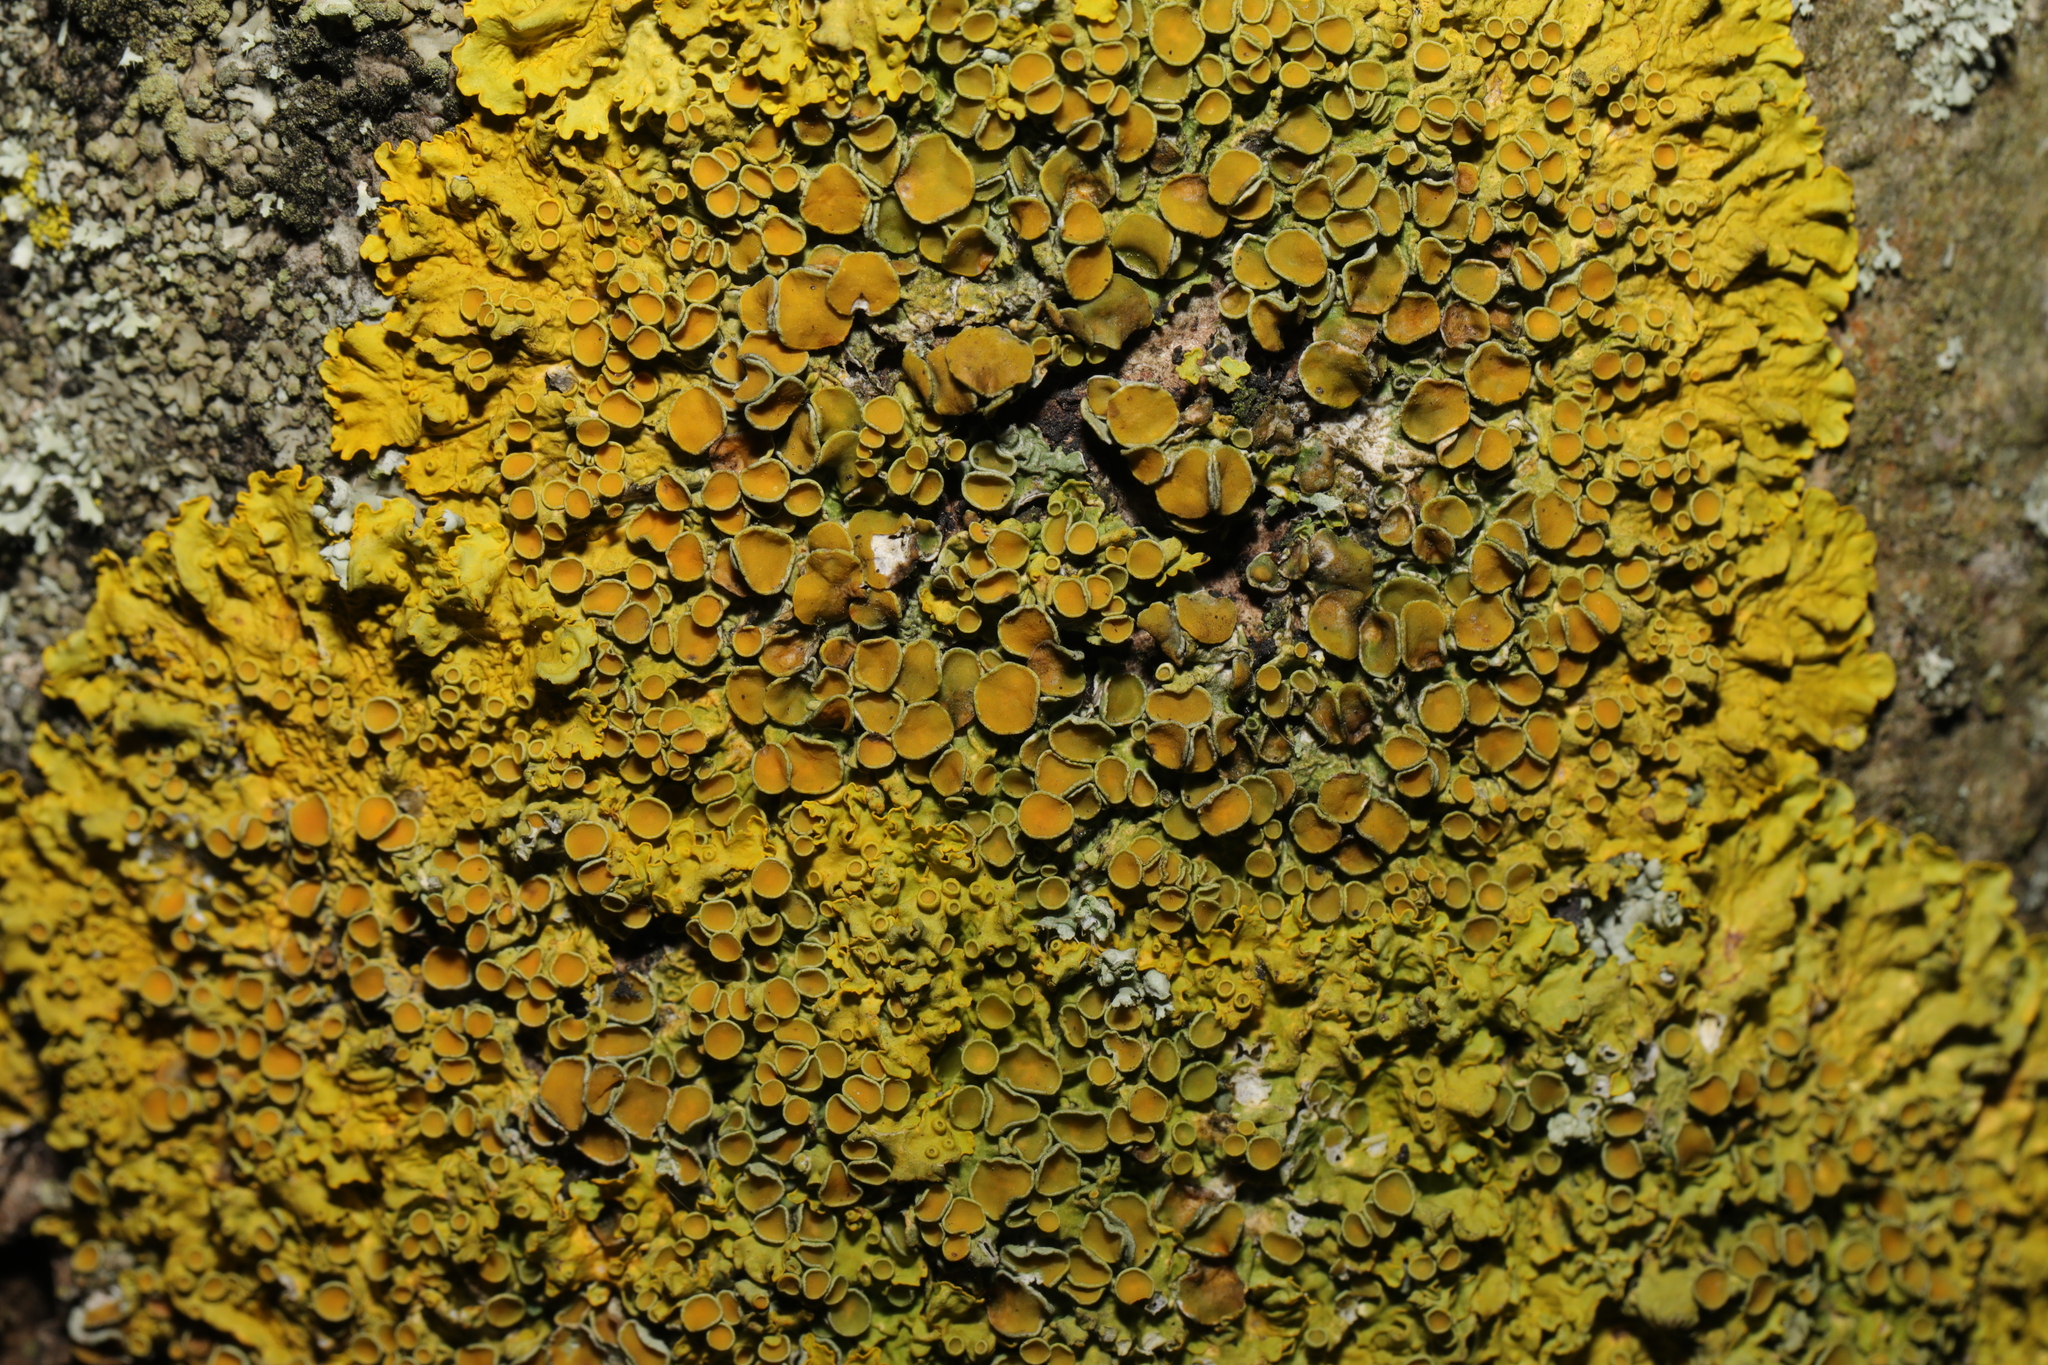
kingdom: Fungi
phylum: Ascomycota
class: Lecanoromycetes
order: Teloschistales
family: Teloschistaceae
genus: Xanthoria
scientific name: Xanthoria parietina
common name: Common orange lichen
